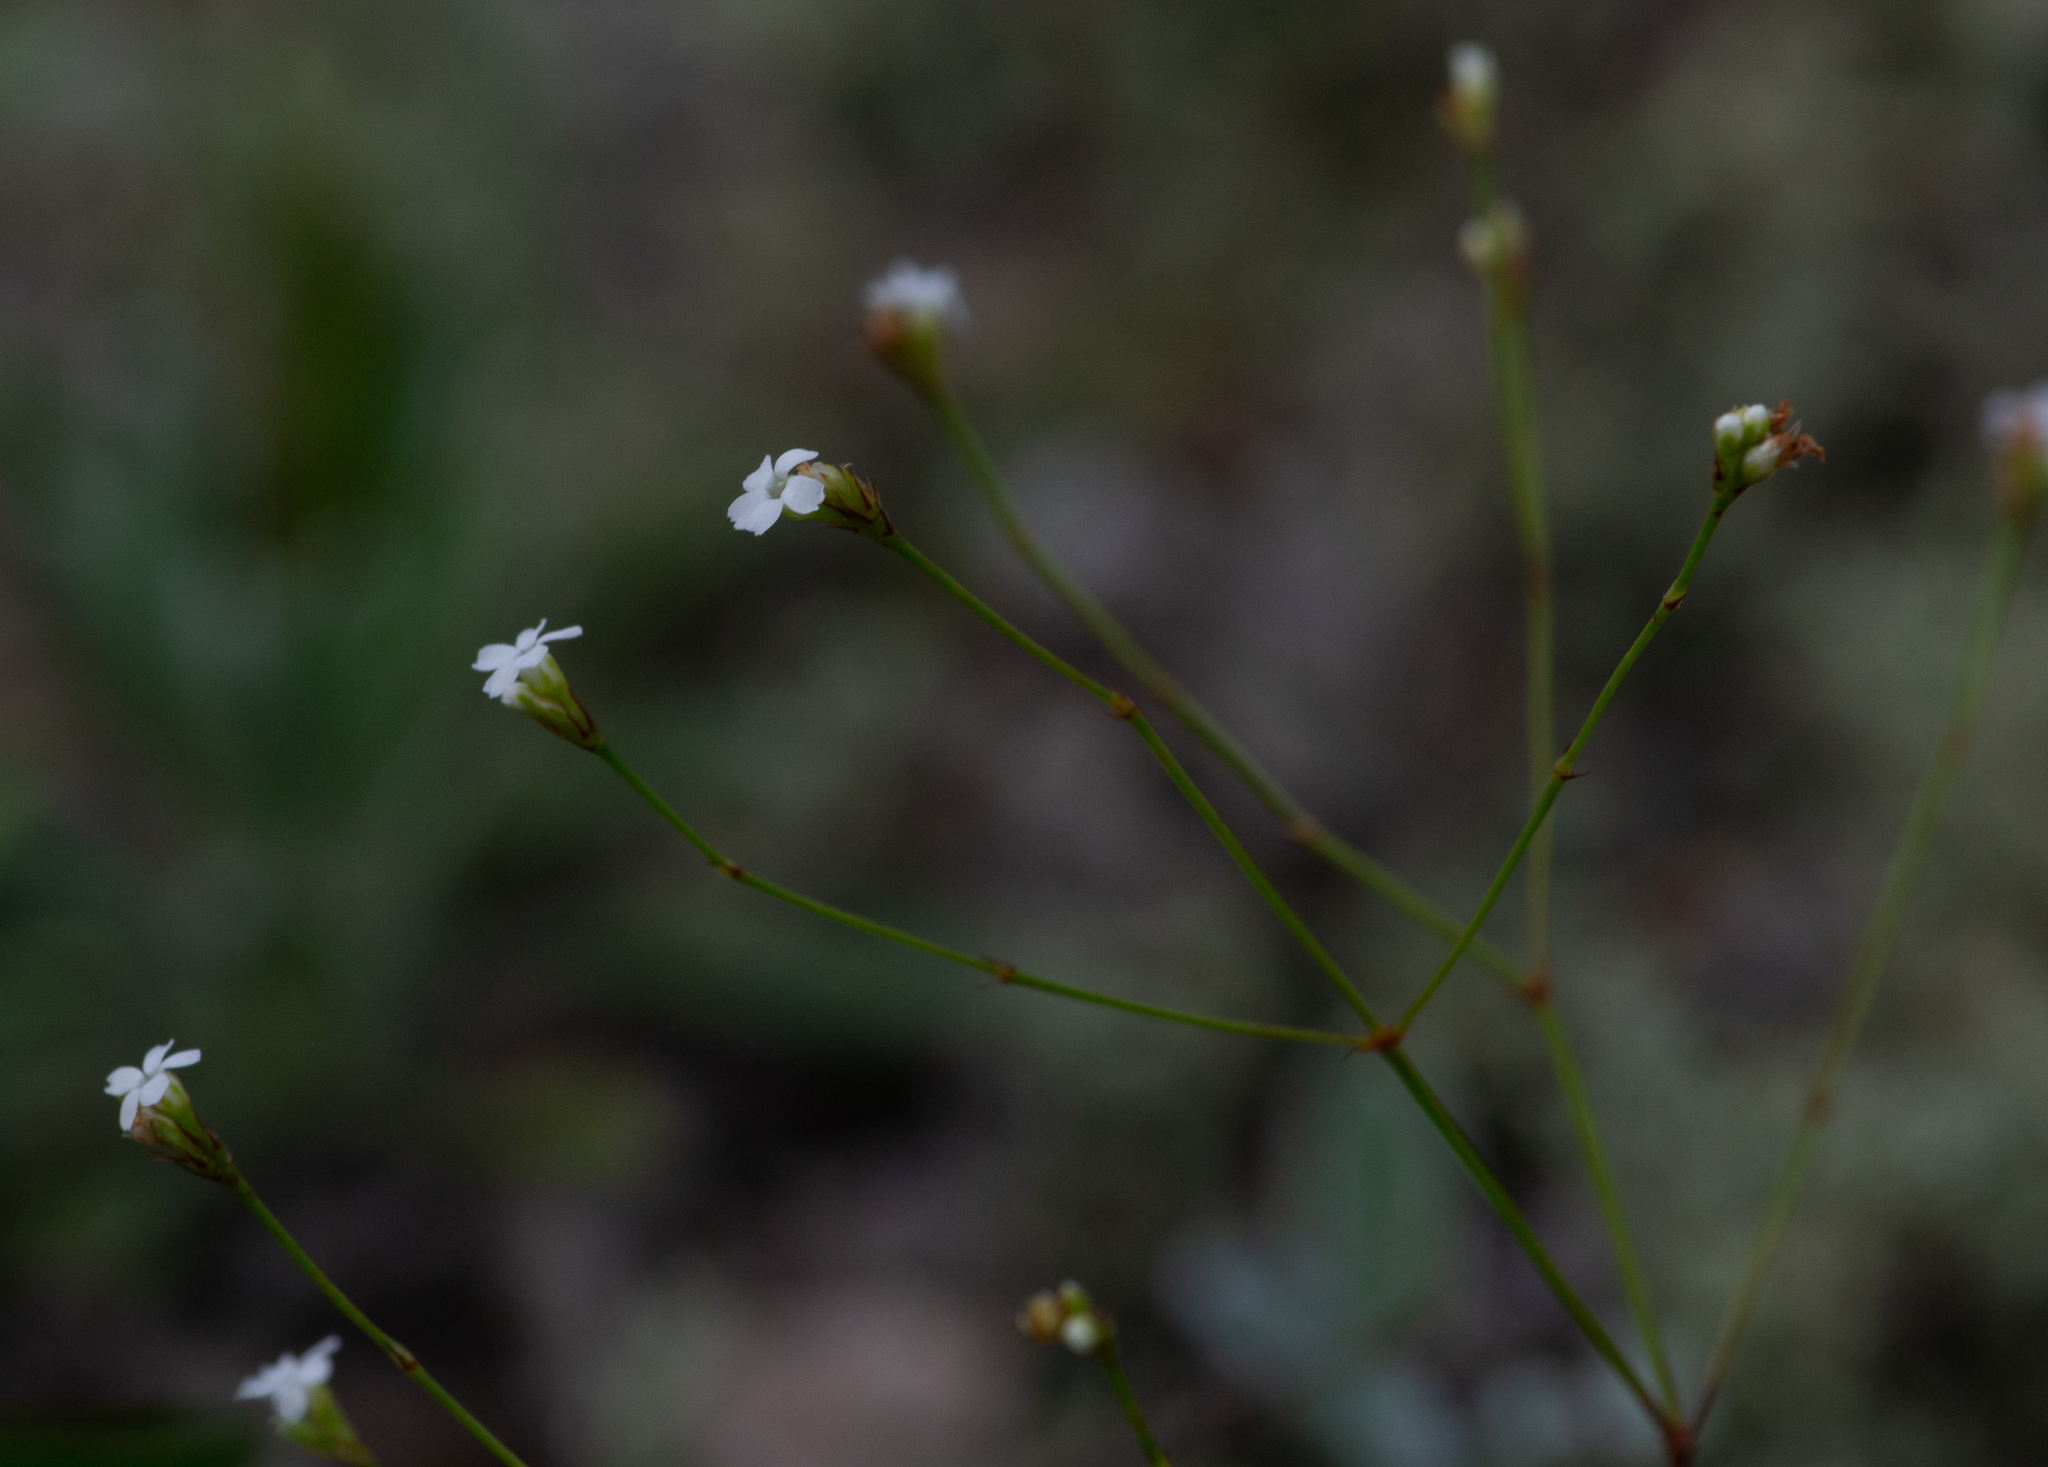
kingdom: Plantae
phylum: Tracheophyta
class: Magnoliopsida
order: Caryophyllales
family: Caryophyllaceae
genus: Stipulicida
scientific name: Stipulicida setacea
